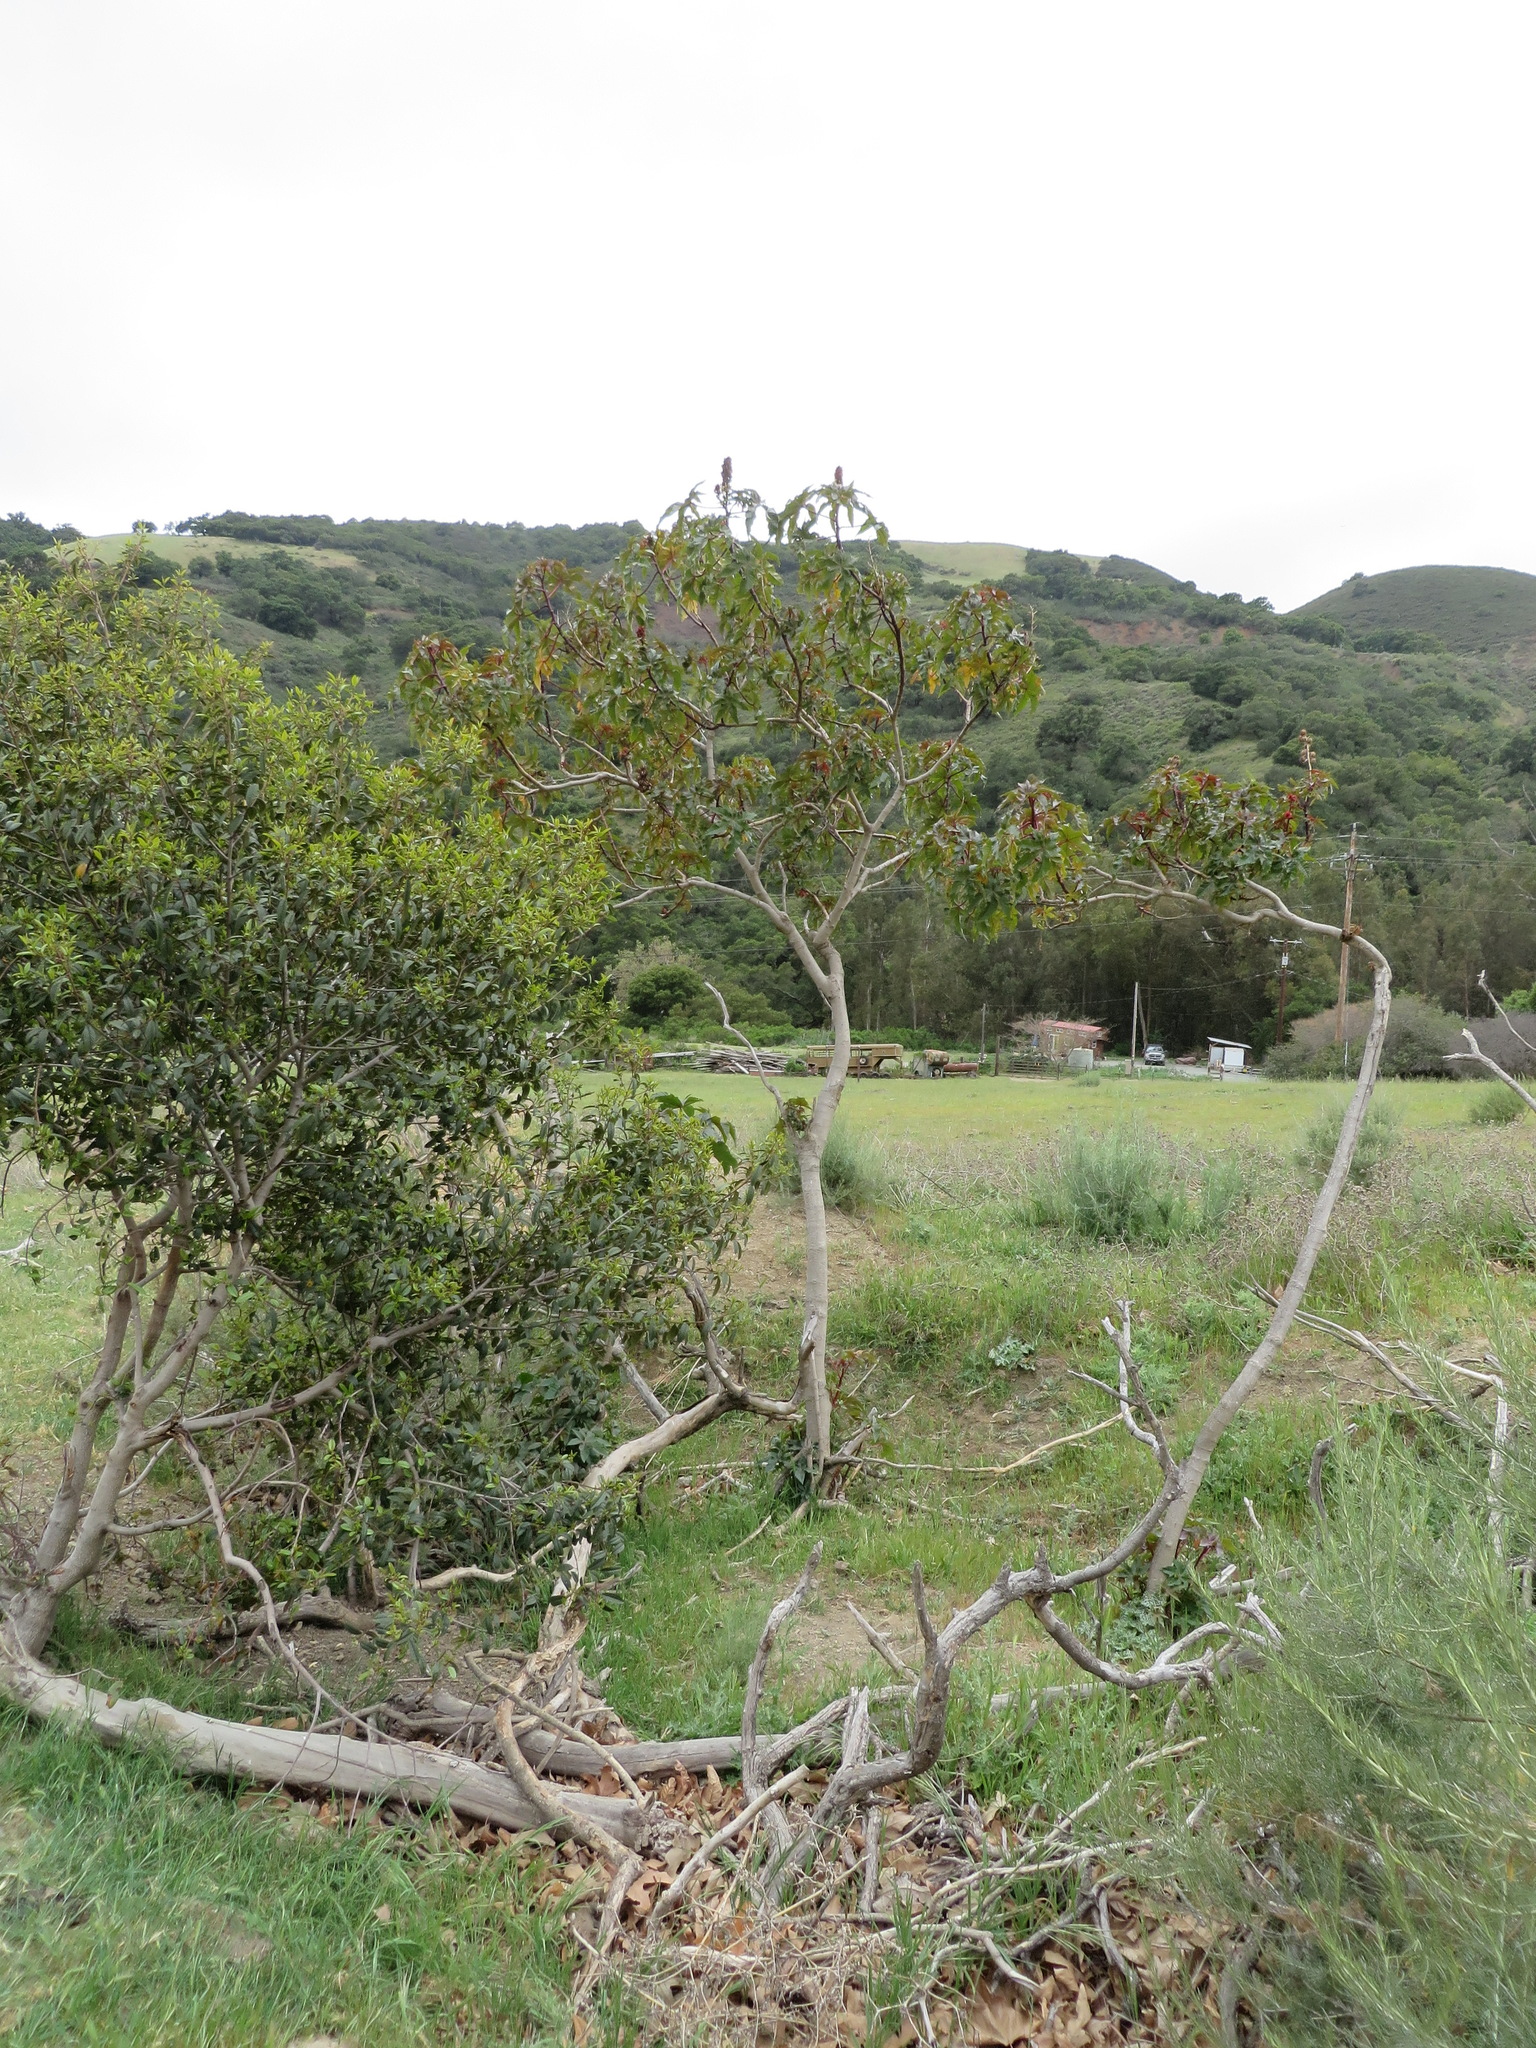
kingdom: Plantae
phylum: Tracheophyta
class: Magnoliopsida
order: Malpighiales
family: Euphorbiaceae
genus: Ricinus
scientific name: Ricinus communis
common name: Castor-oil-plant
